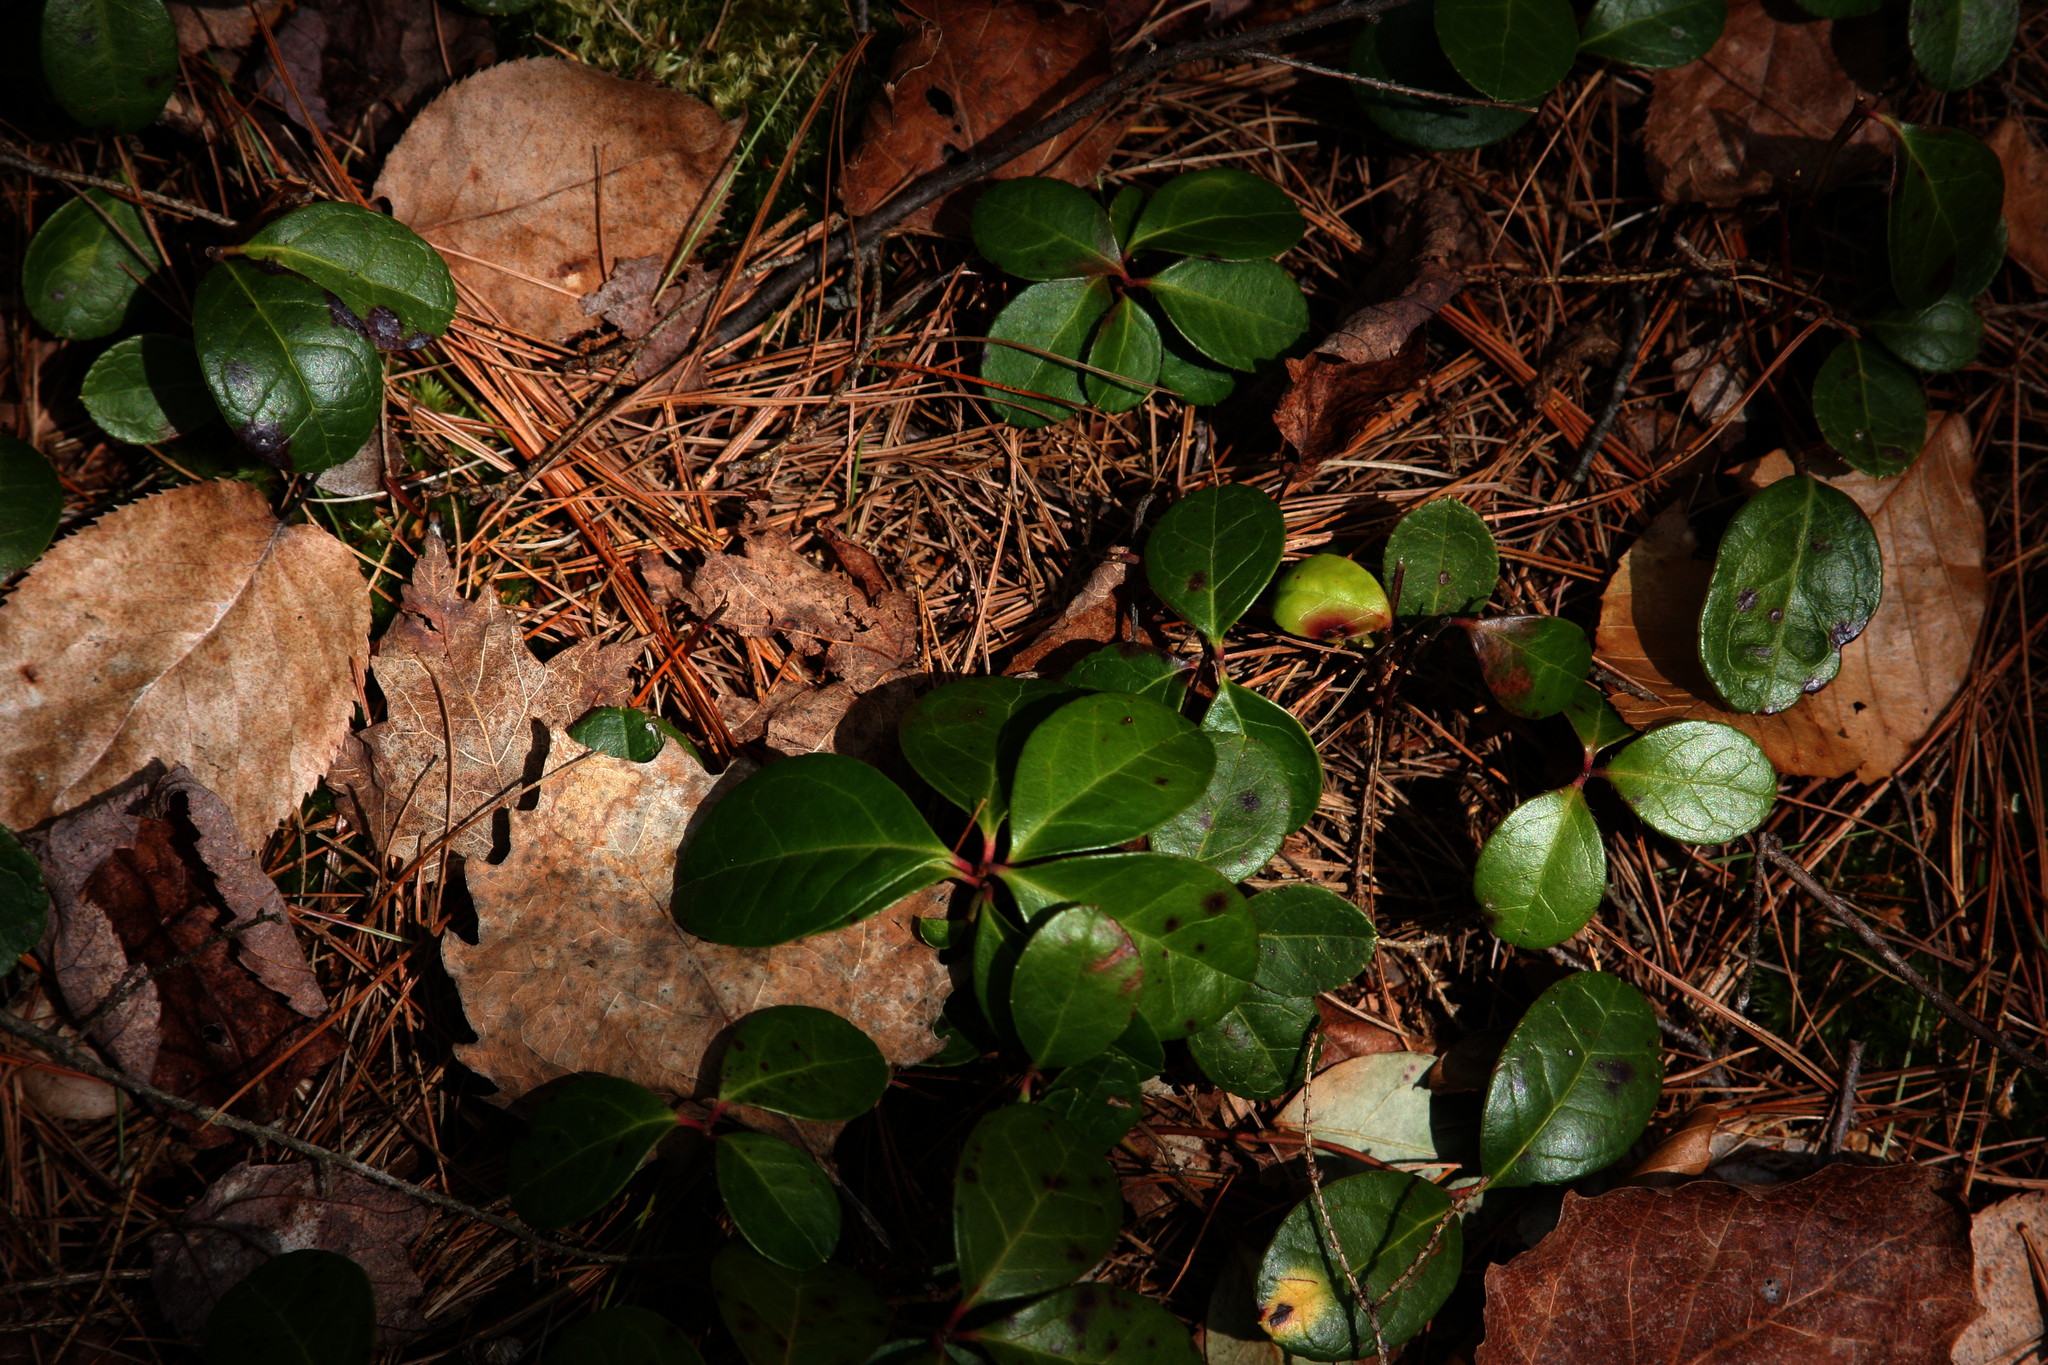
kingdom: Plantae
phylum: Tracheophyta
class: Magnoliopsida
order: Ericales
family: Ericaceae
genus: Gaultheria
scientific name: Gaultheria procumbens
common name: Checkerberry
